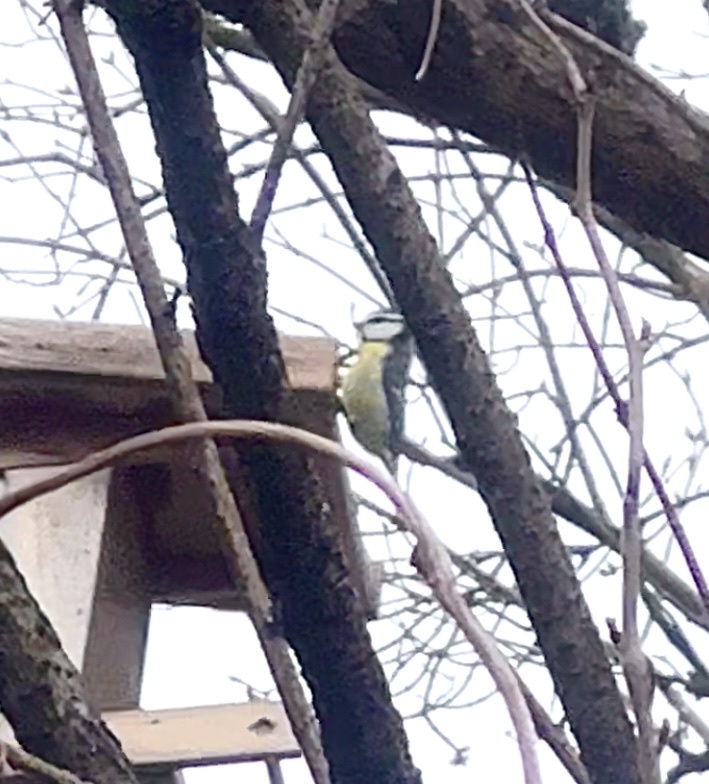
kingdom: Animalia
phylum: Chordata
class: Aves
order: Passeriformes
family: Paridae
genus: Cyanistes
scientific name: Cyanistes caeruleus
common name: Eurasian blue tit
